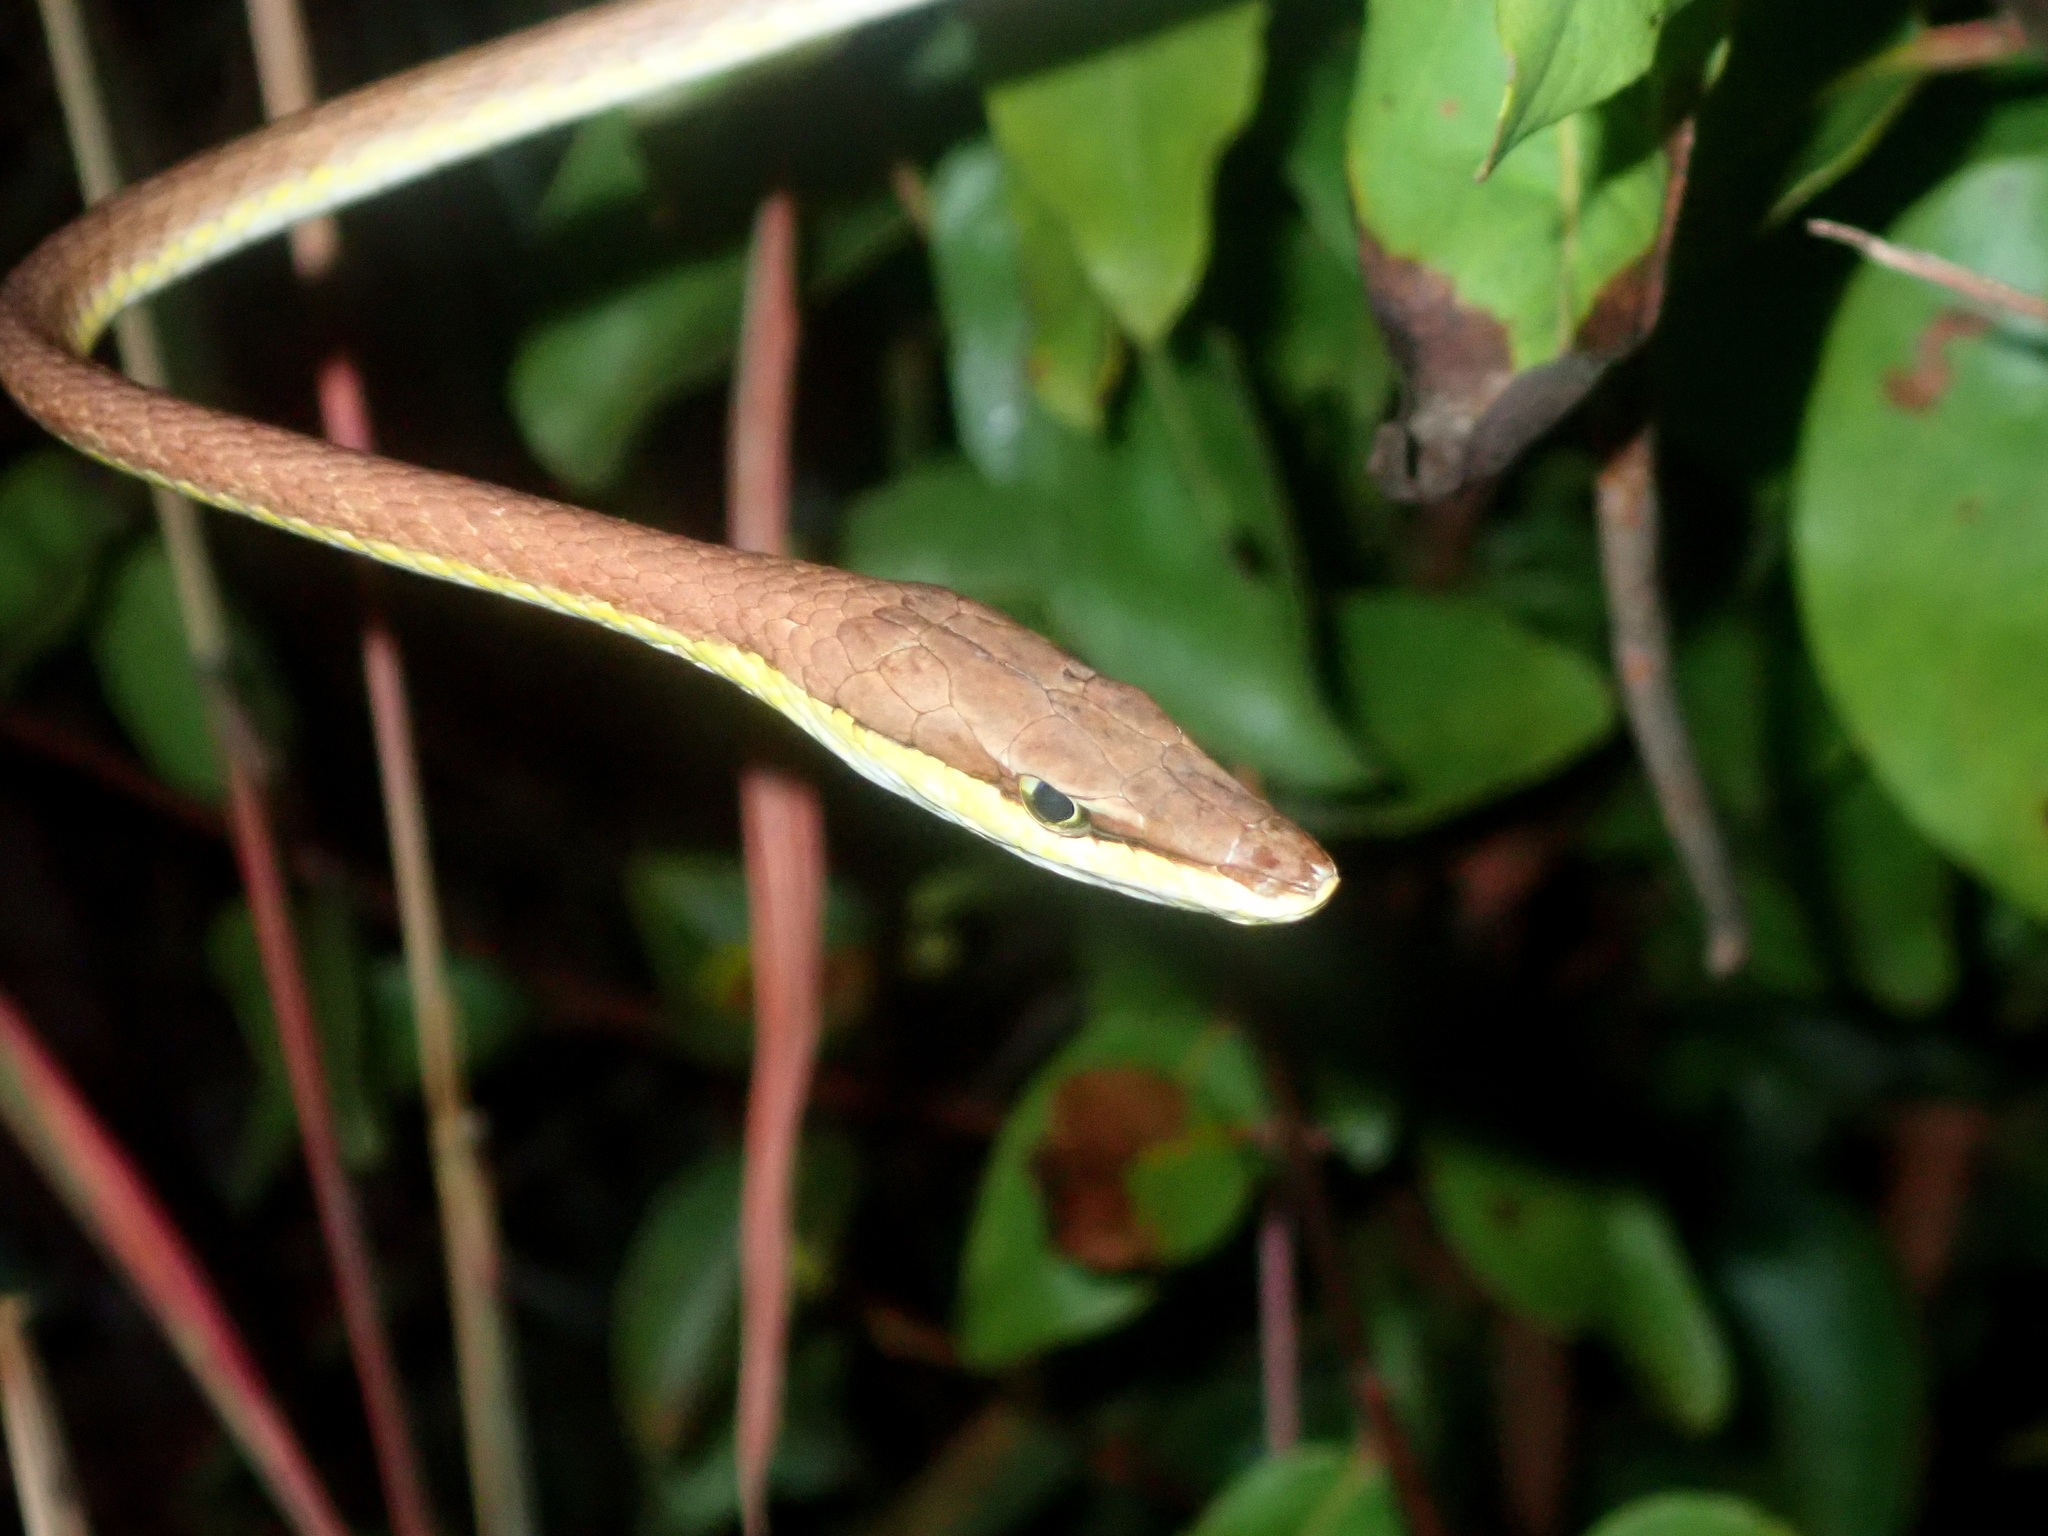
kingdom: Animalia
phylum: Chordata
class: Squamata
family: Colubridae
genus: Oxybelis
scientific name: Oxybelis aeneus
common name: Brown vinesnake
